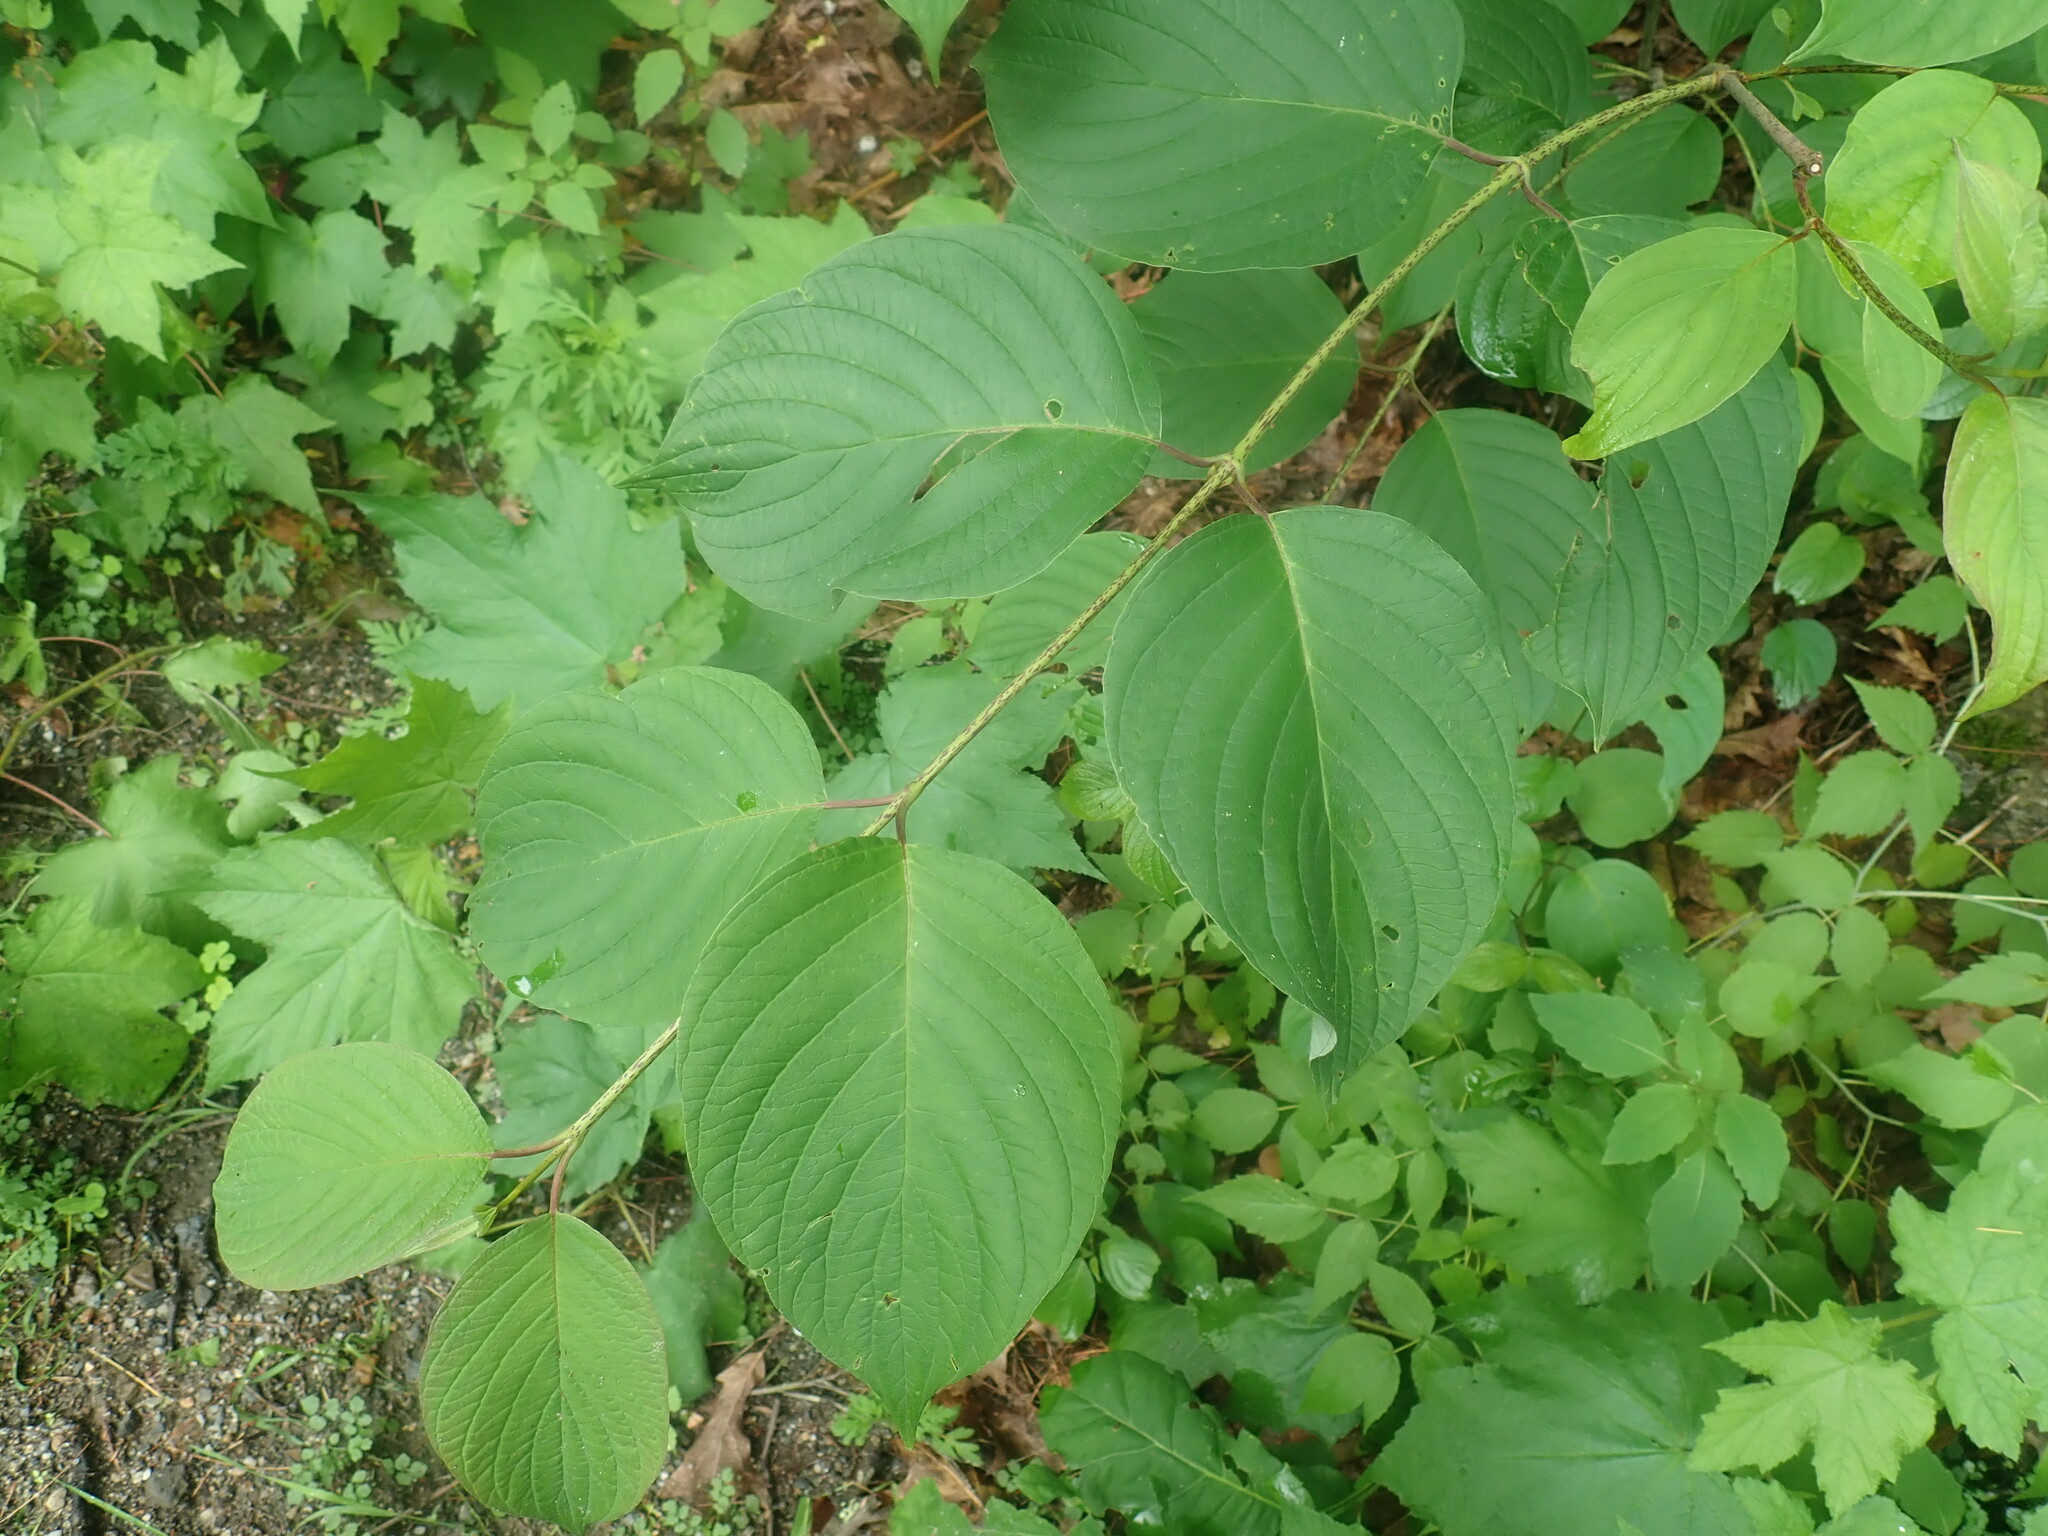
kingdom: Plantae
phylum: Tracheophyta
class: Magnoliopsida
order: Cornales
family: Cornaceae
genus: Cornus
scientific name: Cornus rugosa
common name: Round-leaf dogwood
